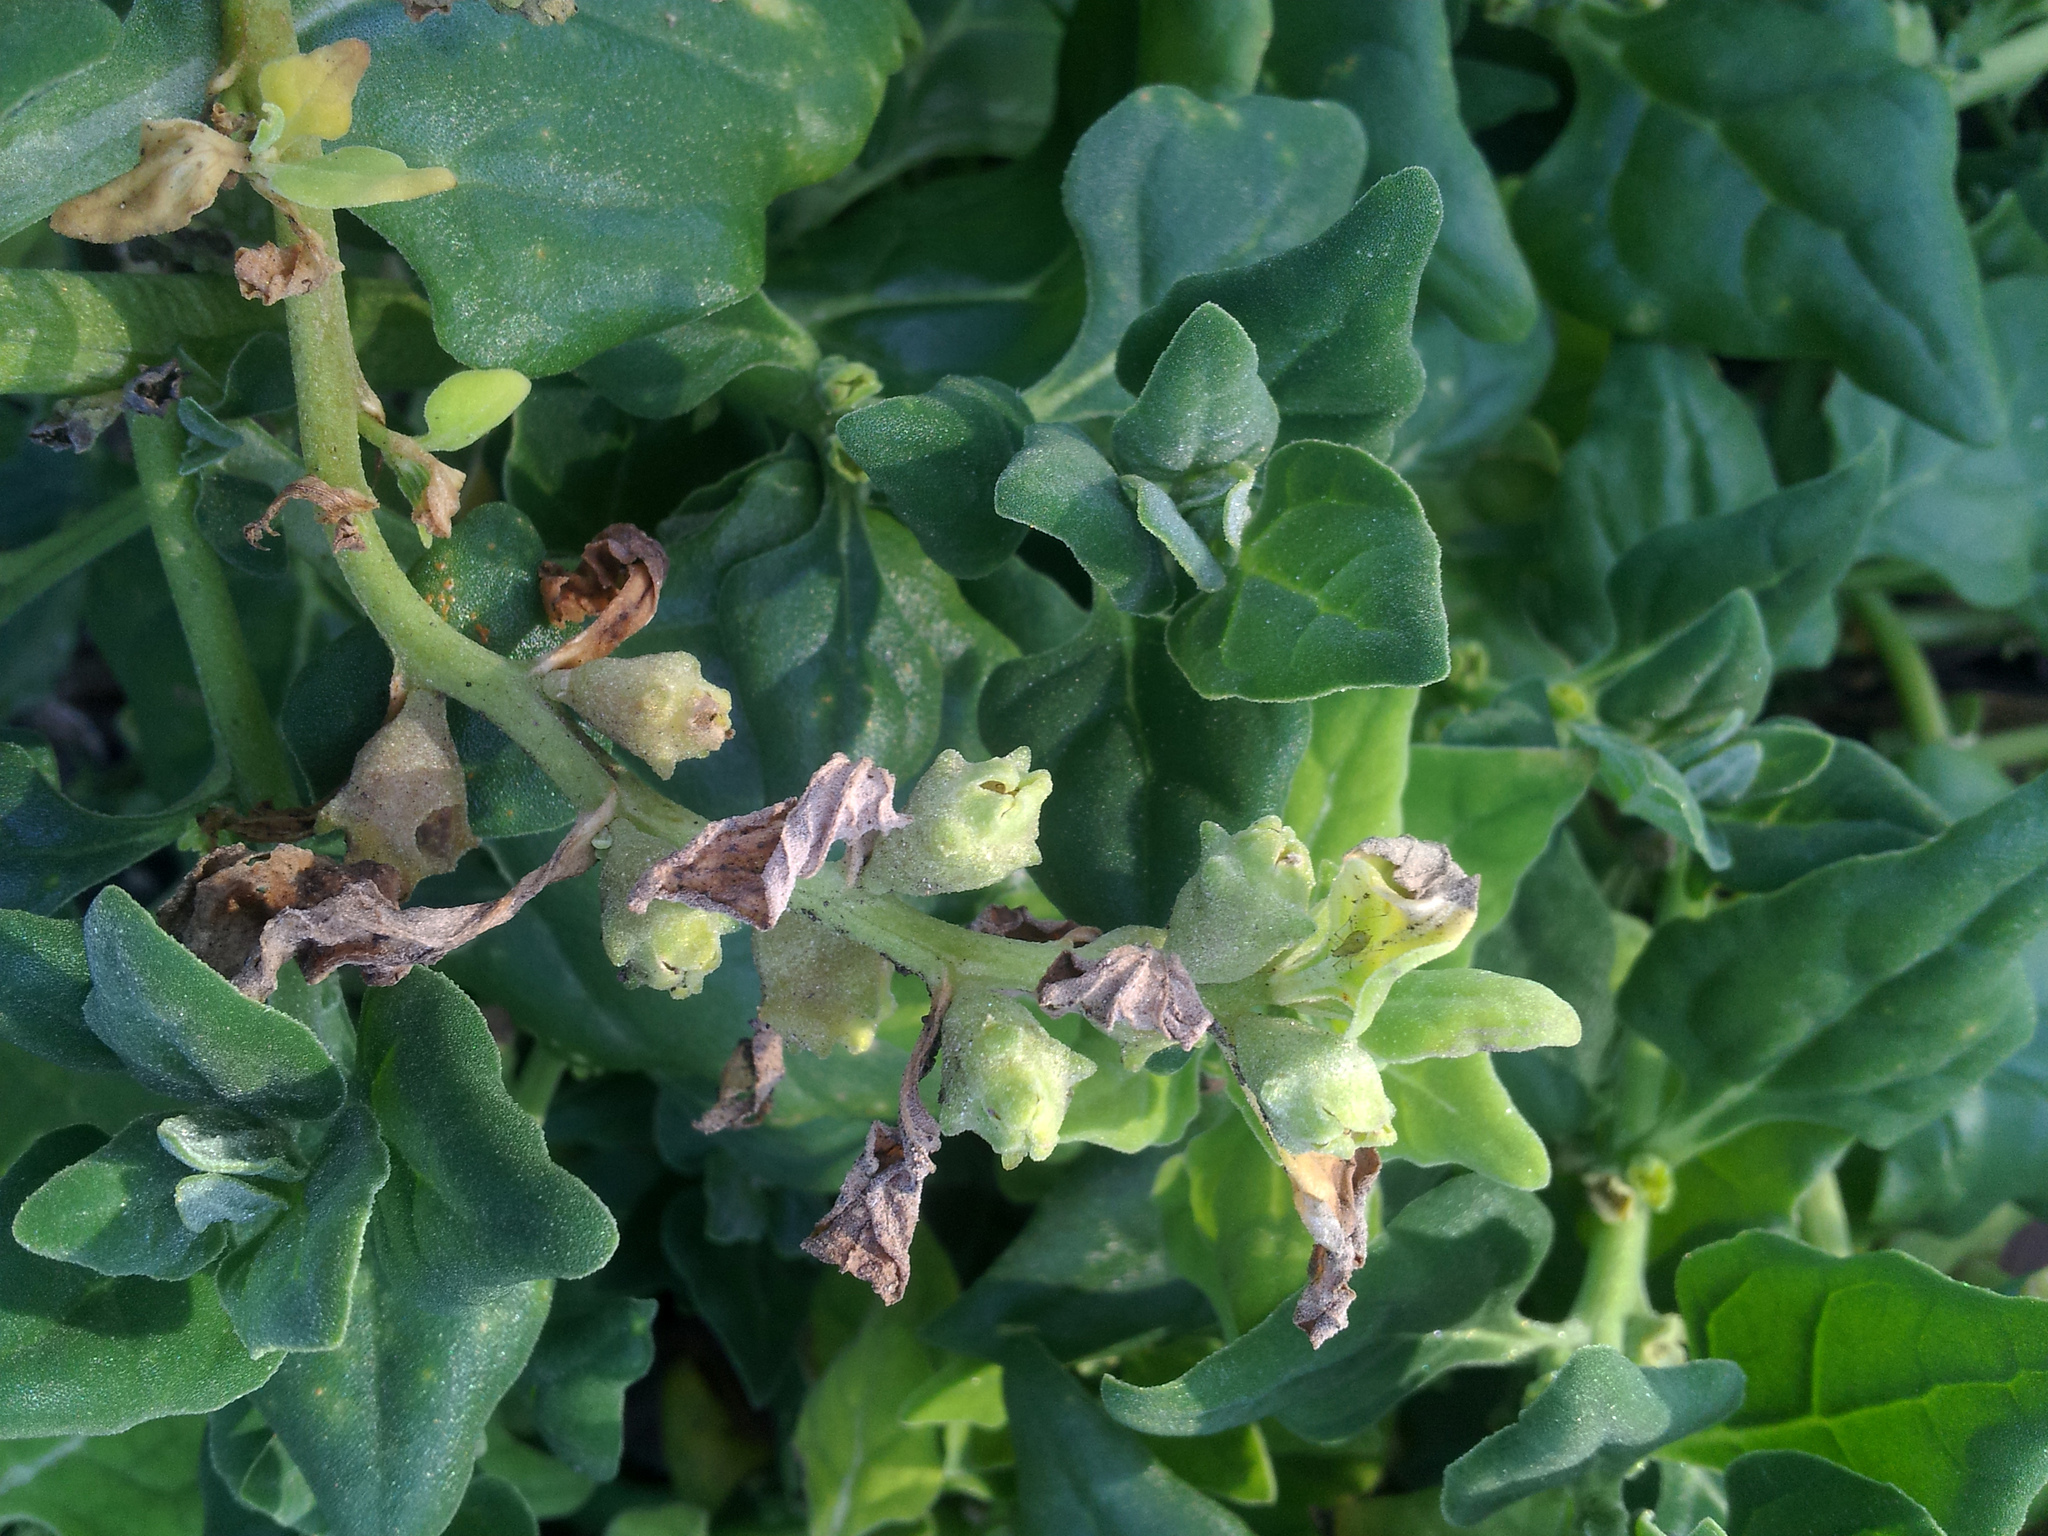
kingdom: Plantae
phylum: Tracheophyta
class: Magnoliopsida
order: Caryophyllales
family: Aizoaceae
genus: Tetragonia
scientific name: Tetragonia tetragonoides
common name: New zealand-spinach
